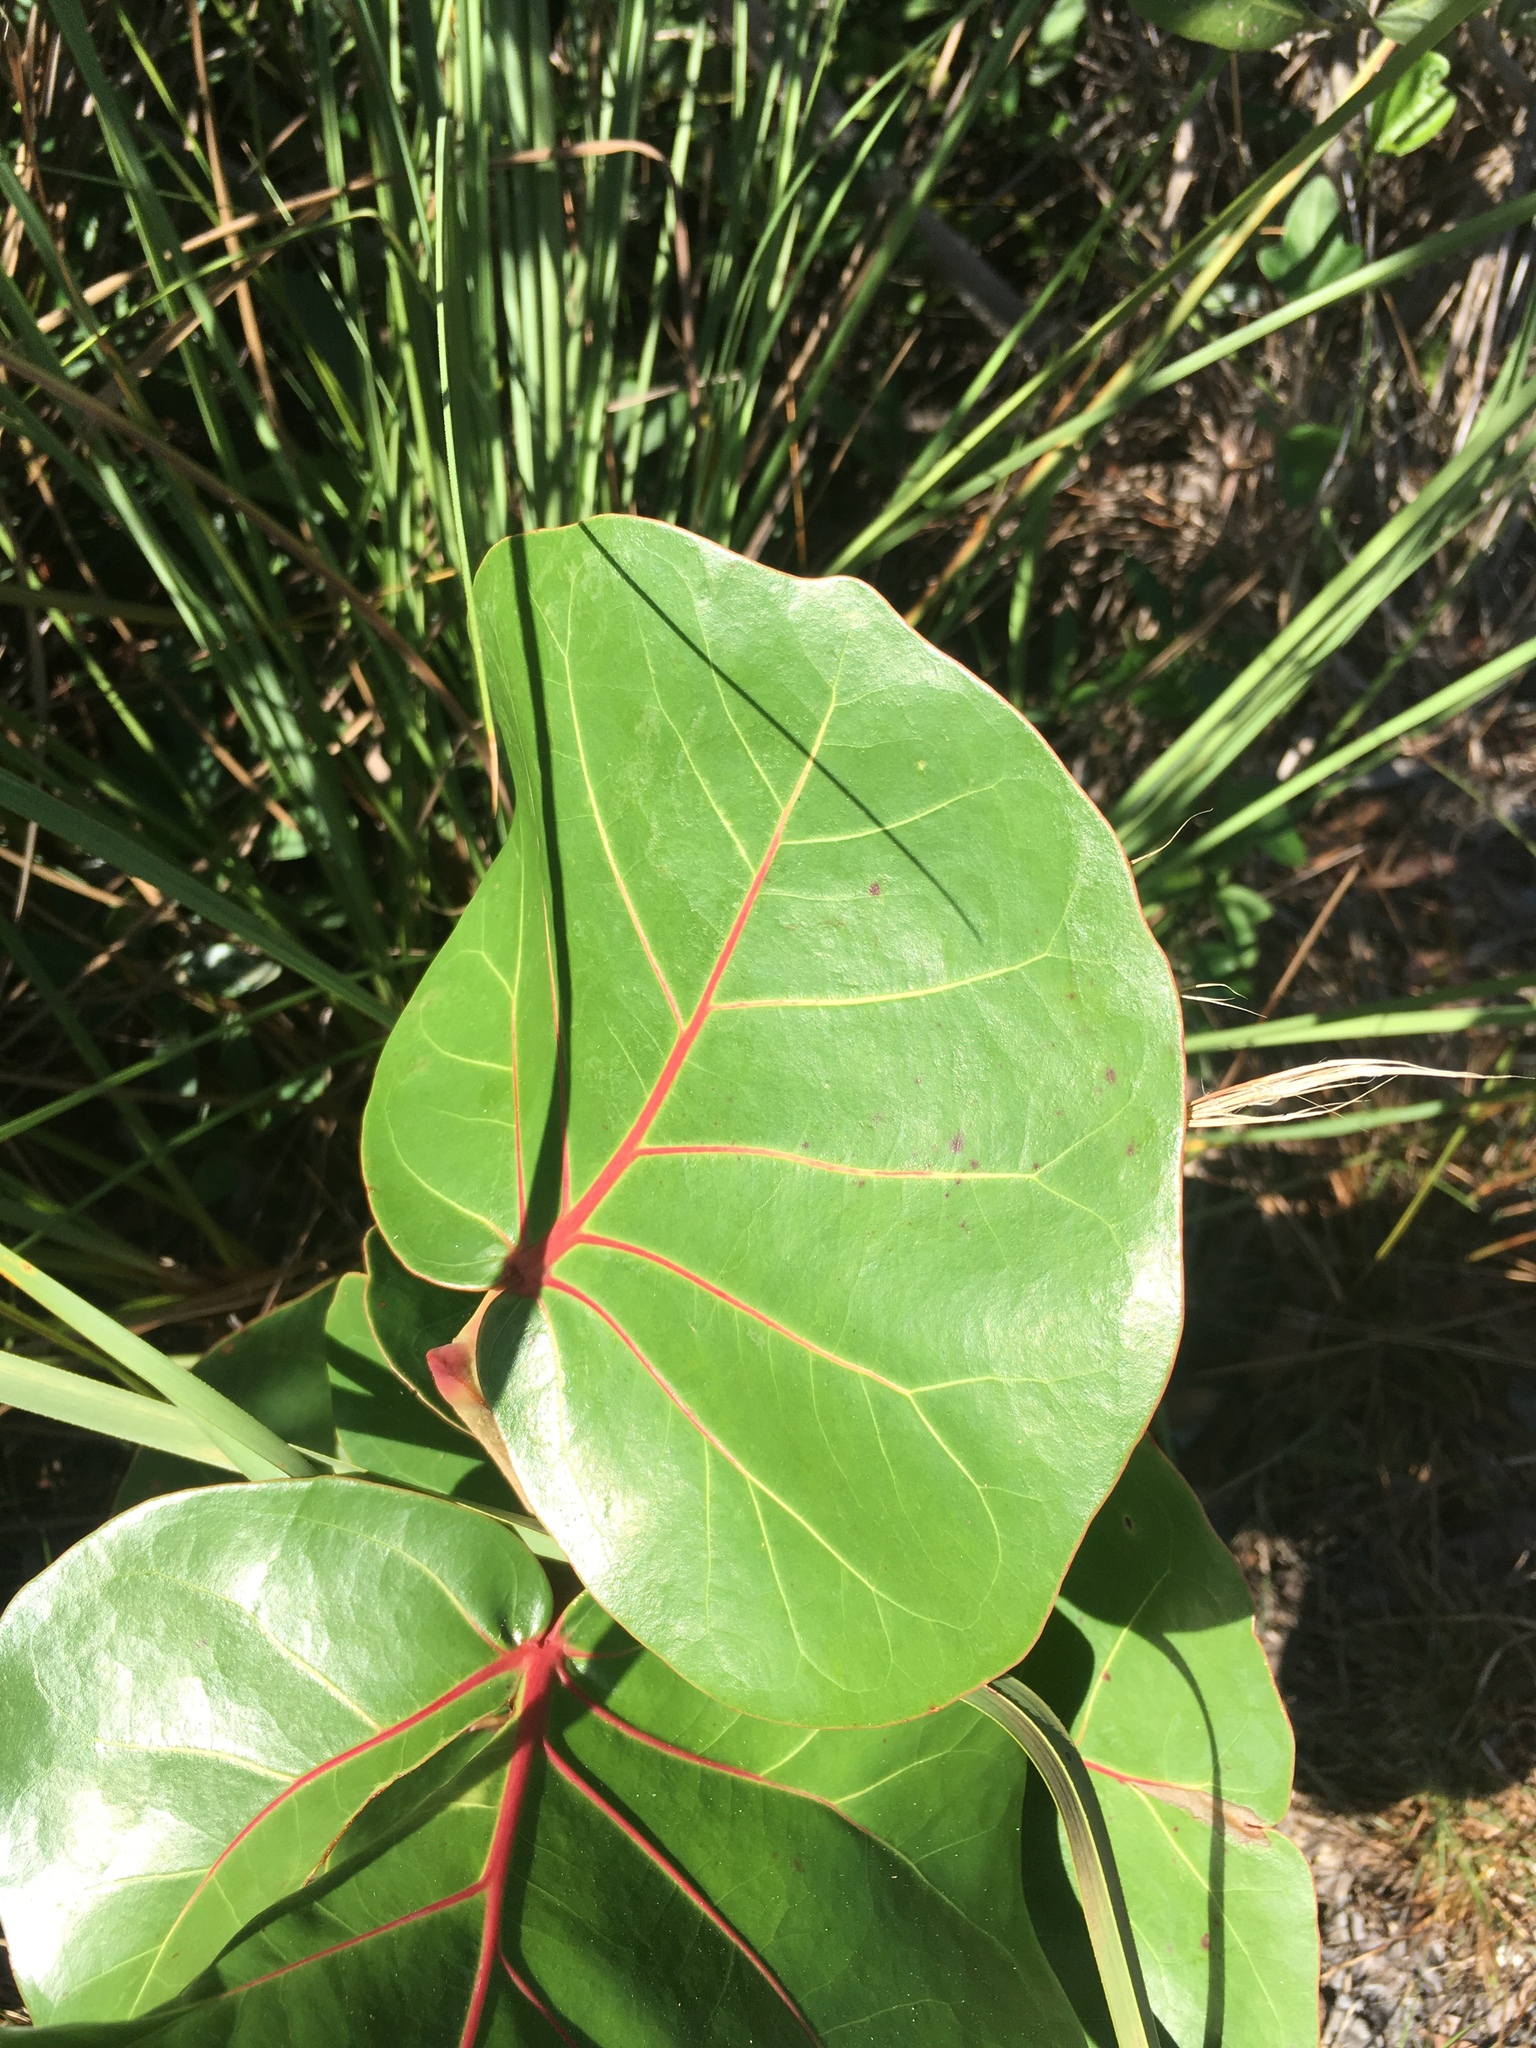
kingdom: Plantae
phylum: Tracheophyta
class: Magnoliopsida
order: Caryophyllales
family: Polygonaceae
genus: Coccoloba
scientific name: Coccoloba uvifera
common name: Seagrape
